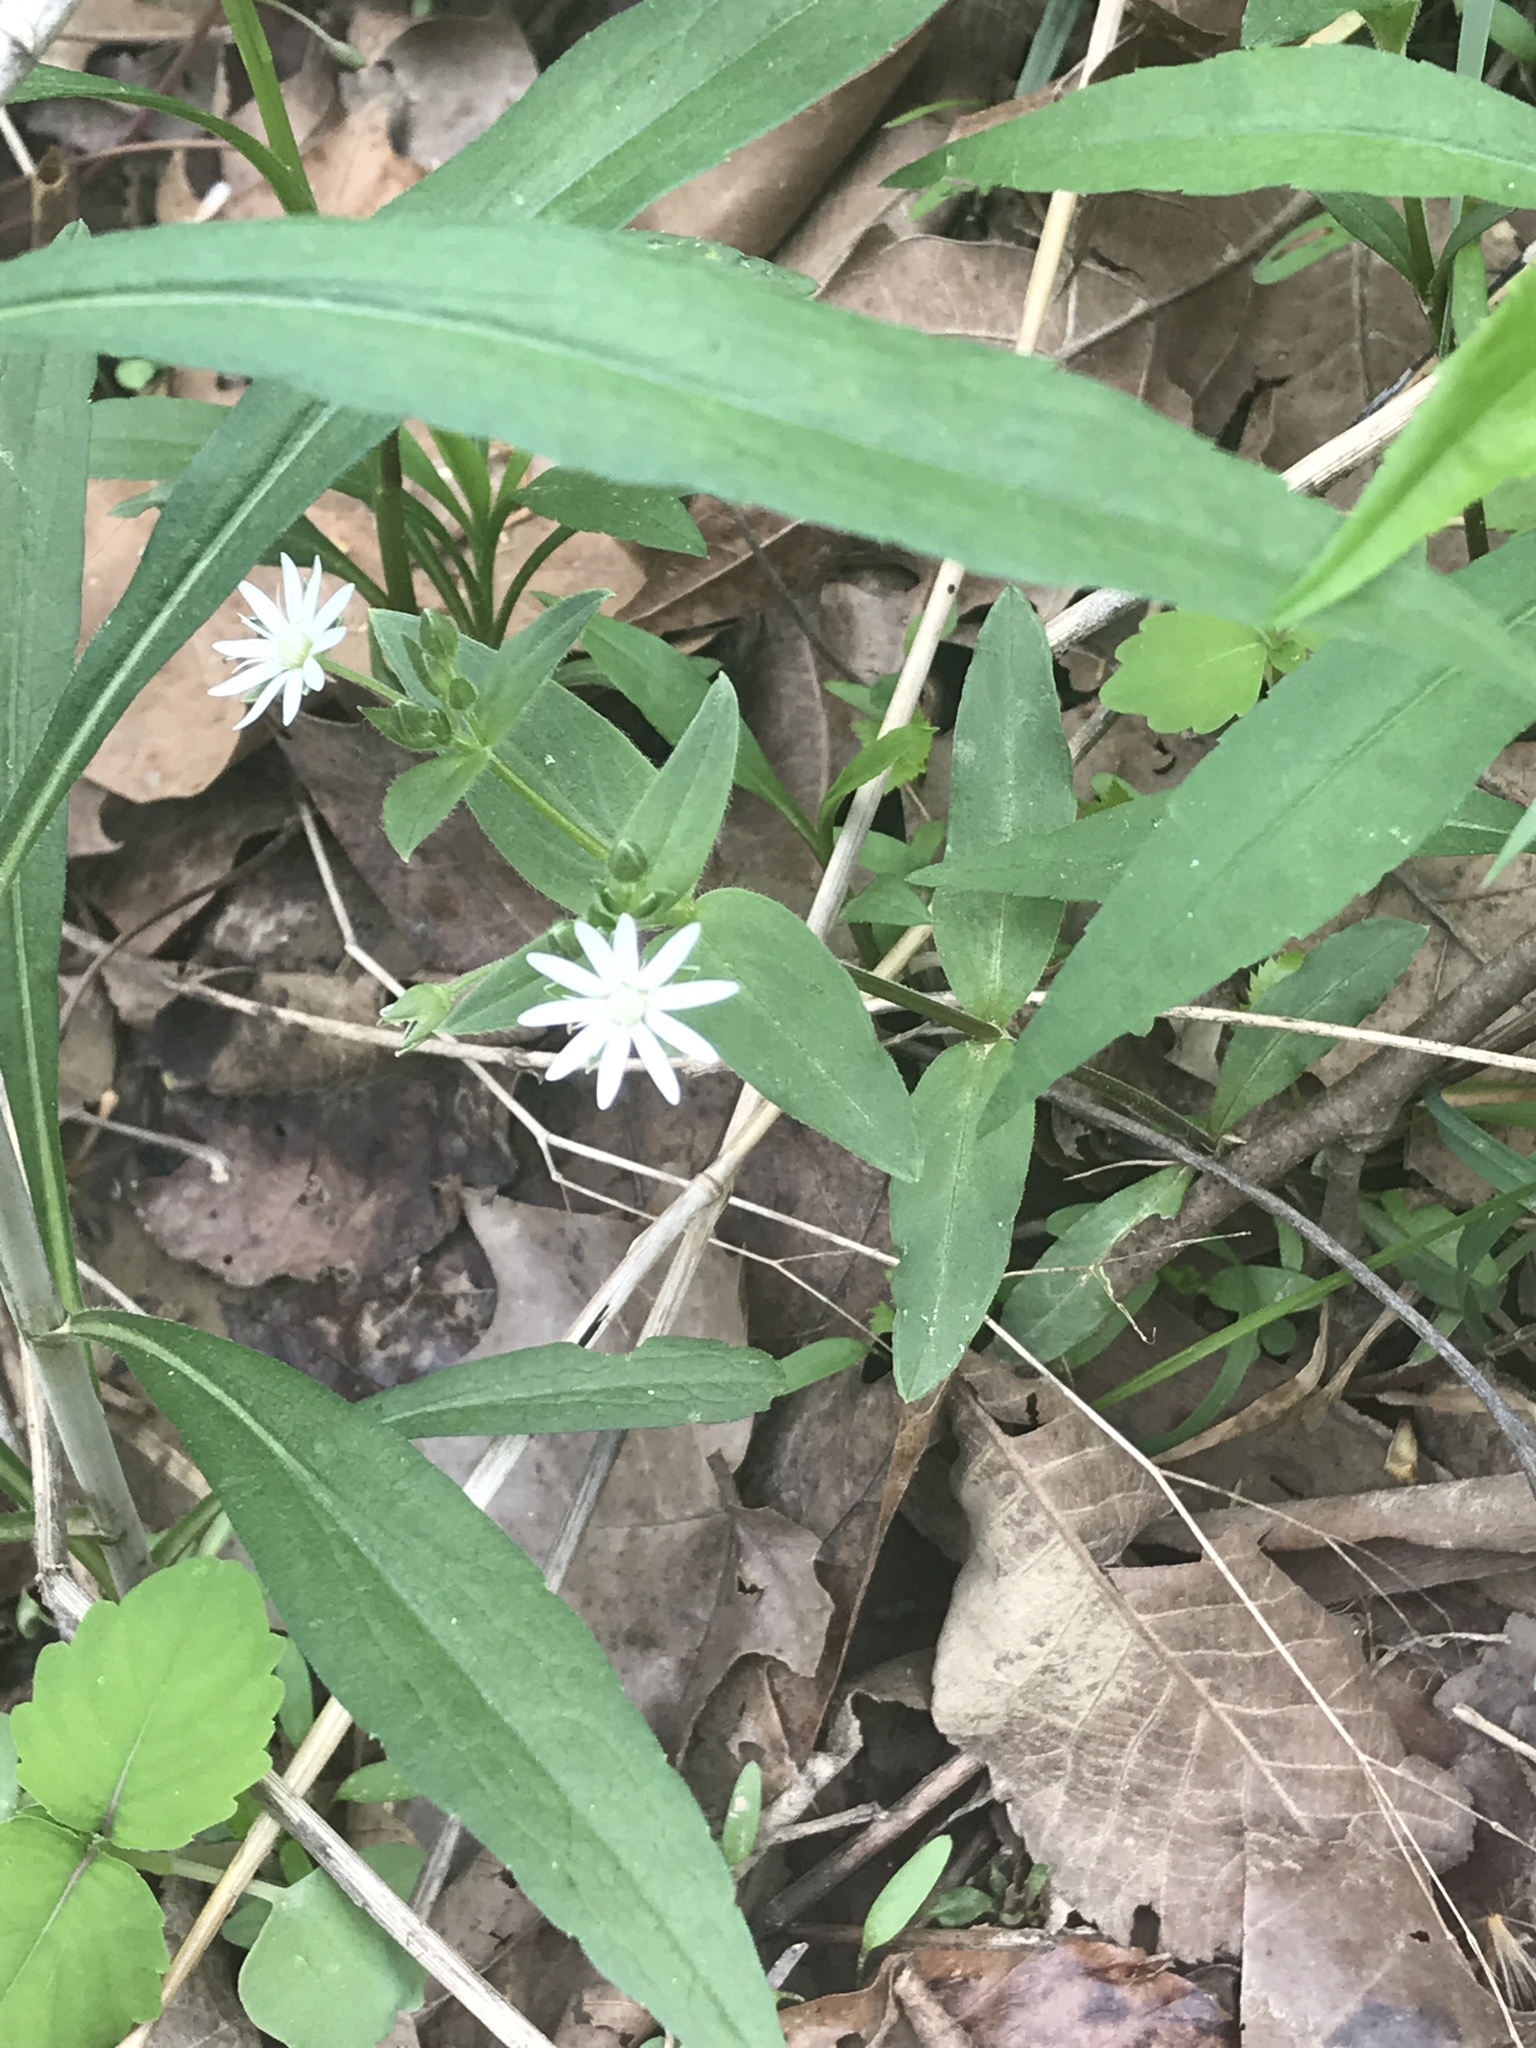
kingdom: Plantae
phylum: Tracheophyta
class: Magnoliopsida
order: Caryophyllales
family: Caryophyllaceae
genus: Stellaria
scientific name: Stellaria pubera
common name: Star chickweed
